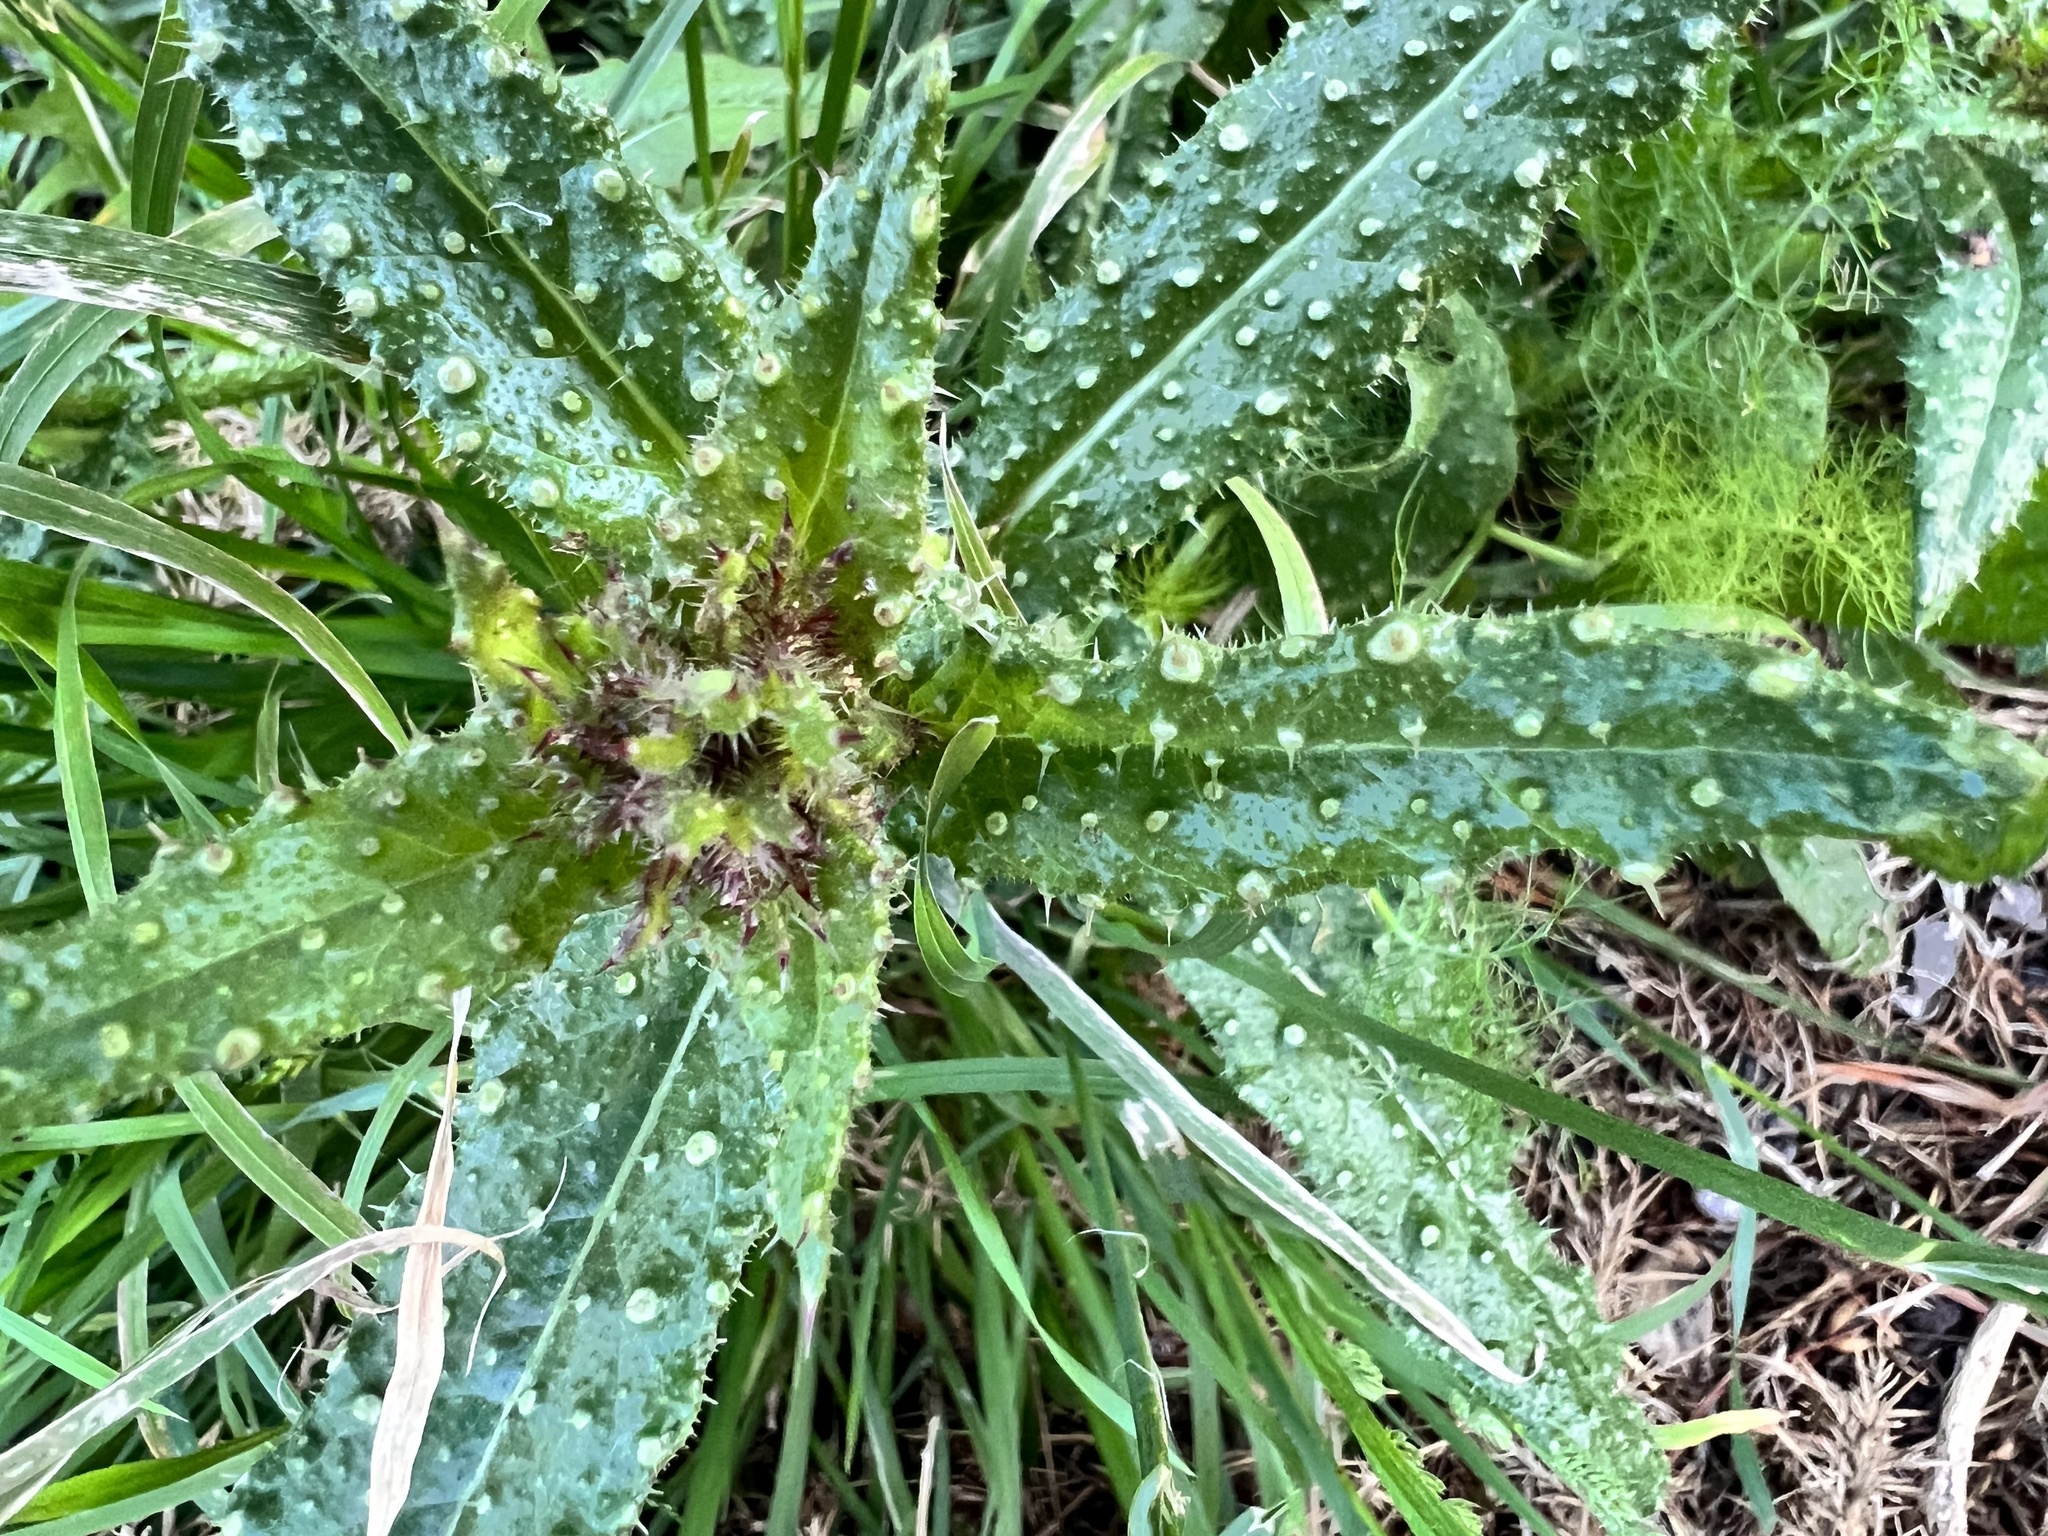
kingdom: Plantae
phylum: Tracheophyta
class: Magnoliopsida
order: Asterales
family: Asteraceae
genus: Helminthotheca
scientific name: Helminthotheca echioides
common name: Ox-tongue
